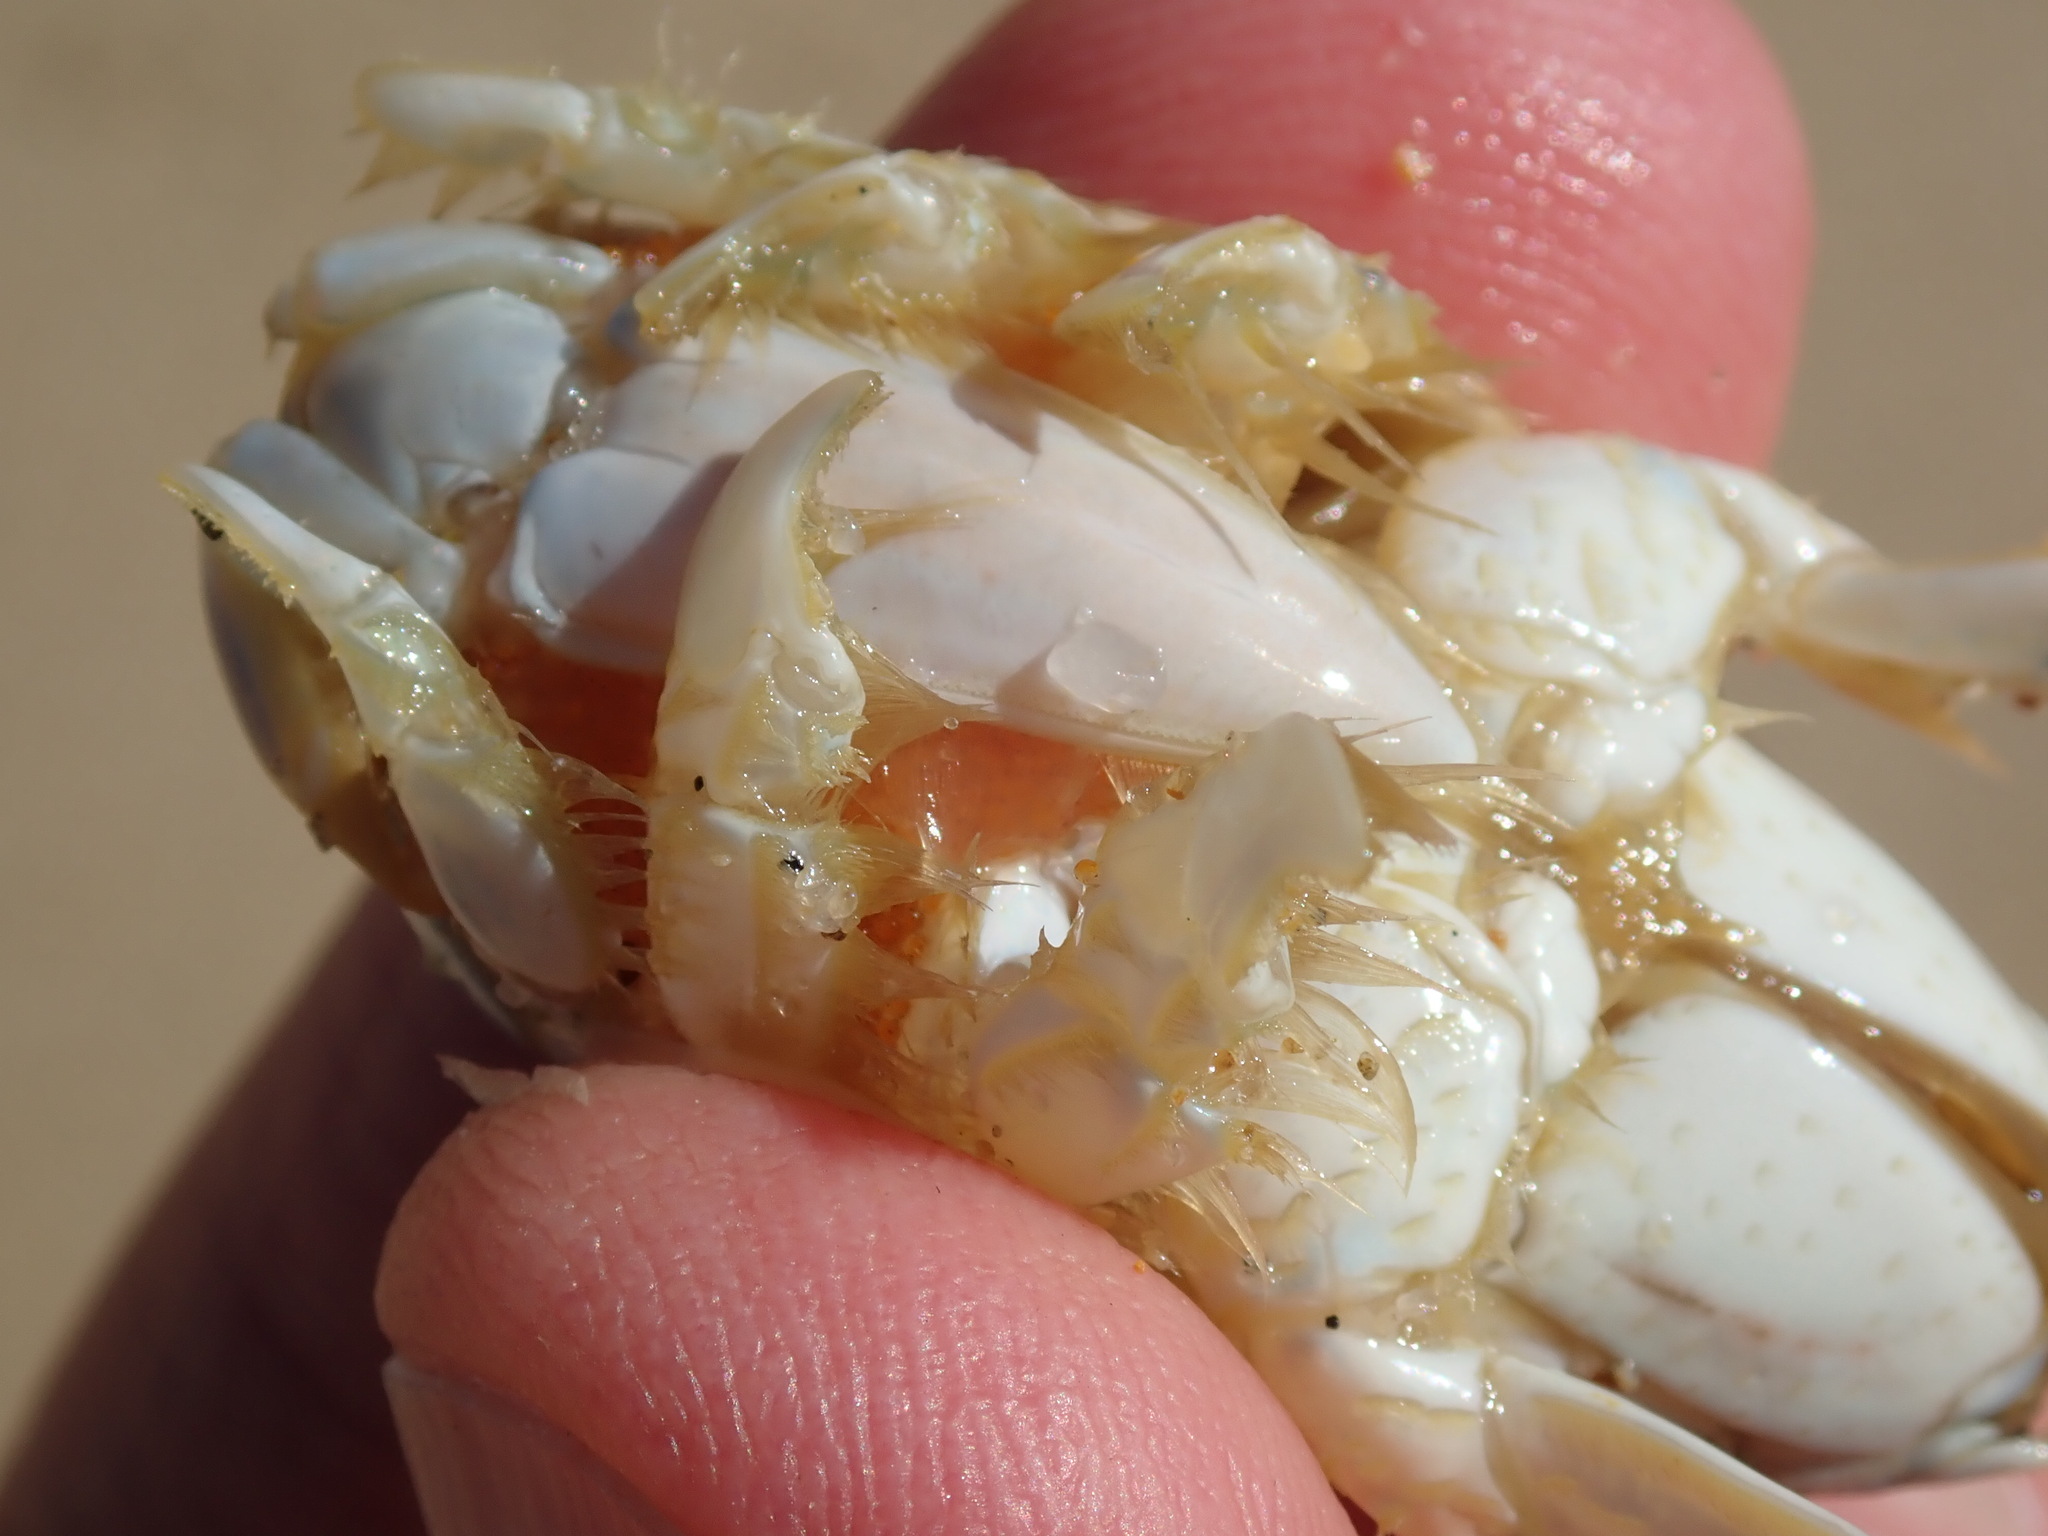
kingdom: Animalia
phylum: Arthropoda
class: Malacostraca
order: Decapoda
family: Hippidae
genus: Emerita
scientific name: Emerita analoga
